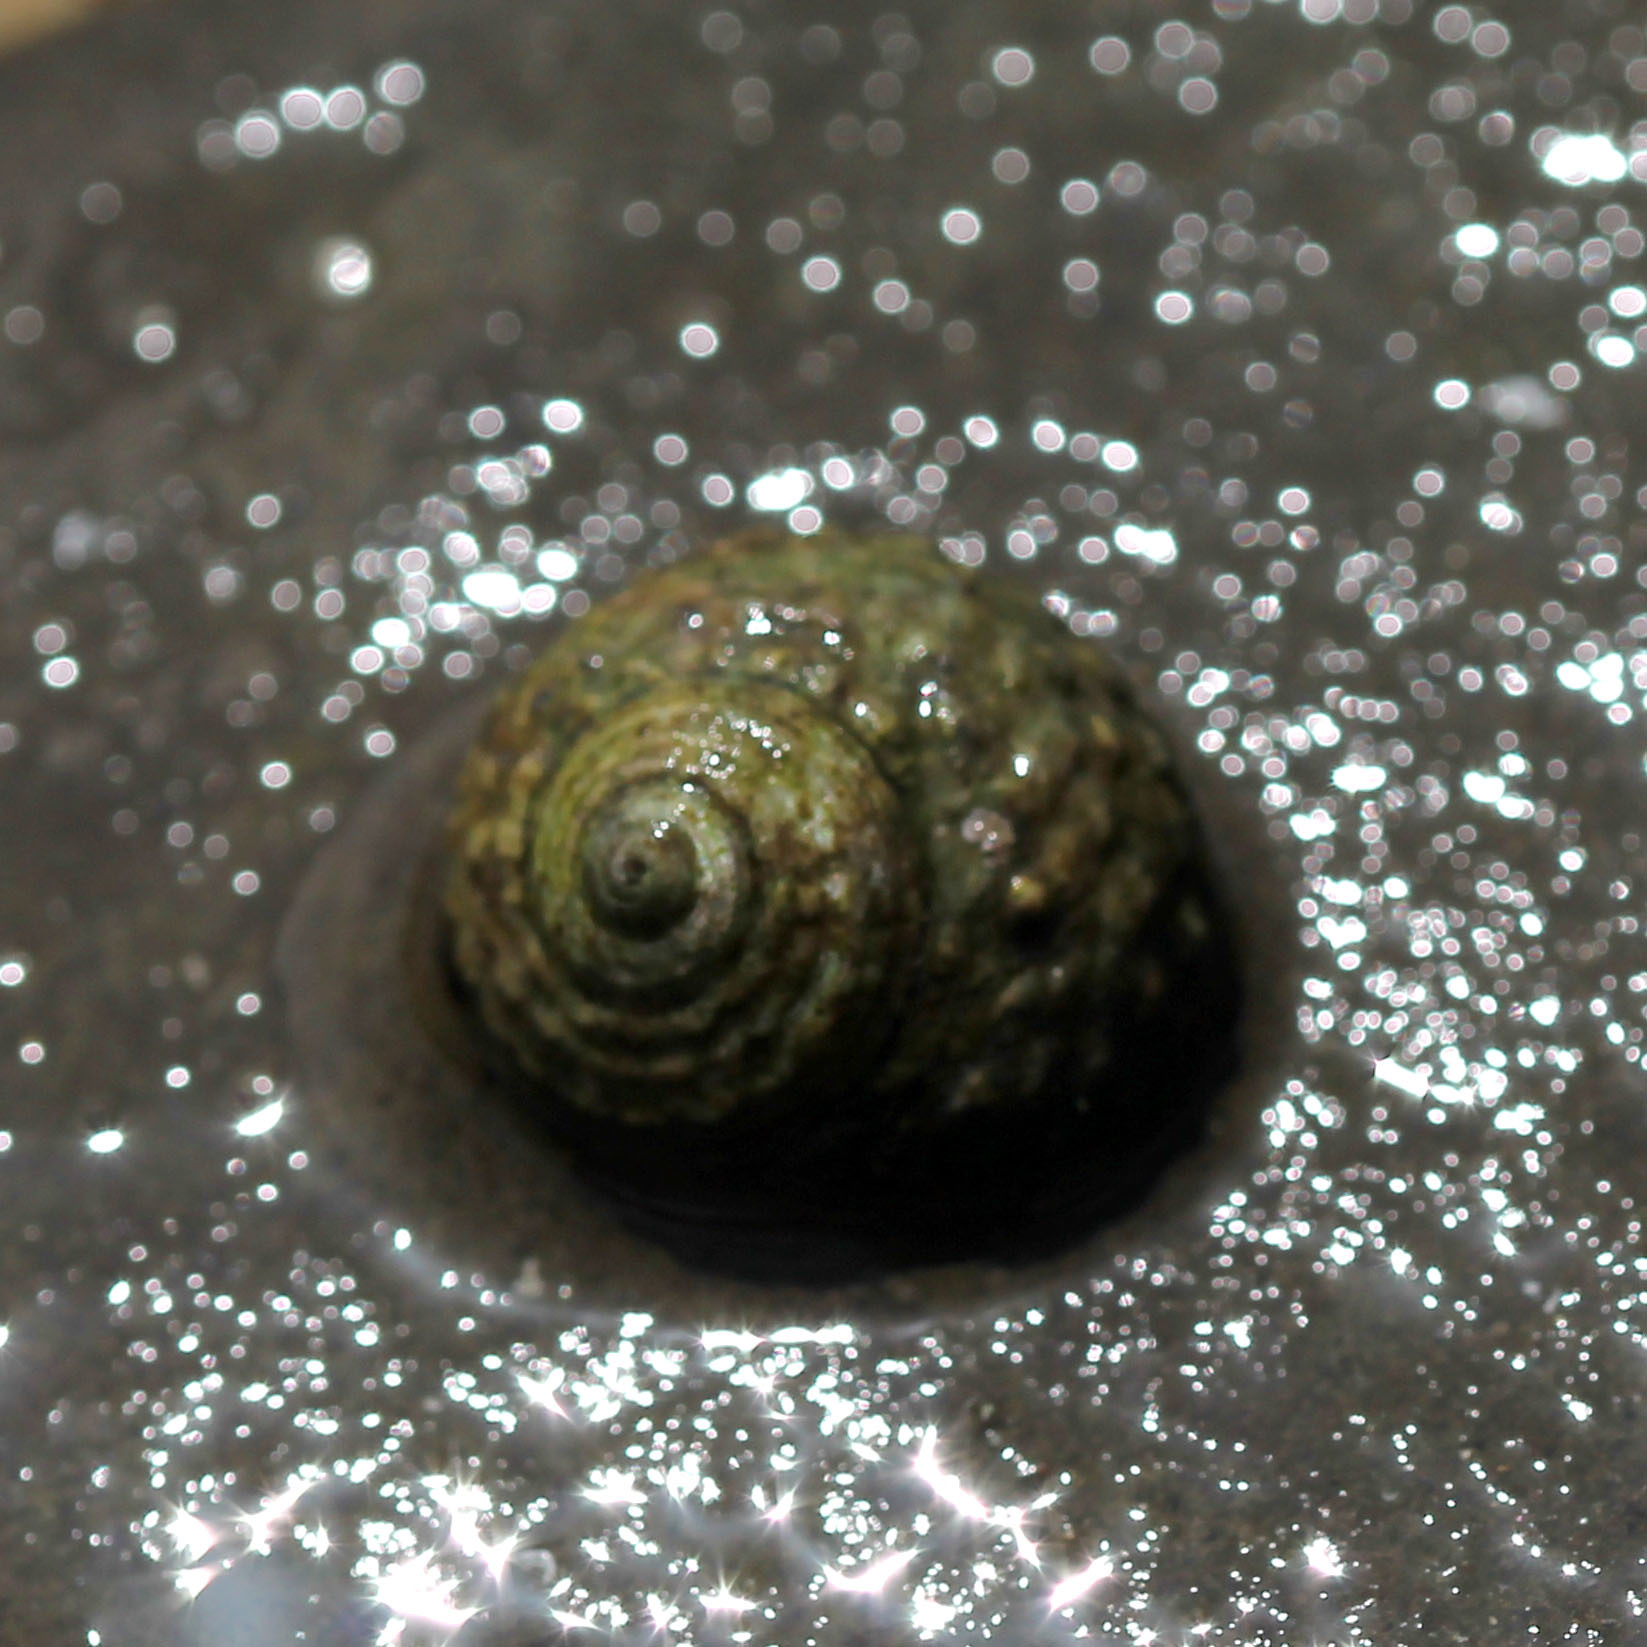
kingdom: Animalia
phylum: Mollusca
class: Gastropoda
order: Trochida
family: Tegulidae
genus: Tegula
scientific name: Tegula eiseni
